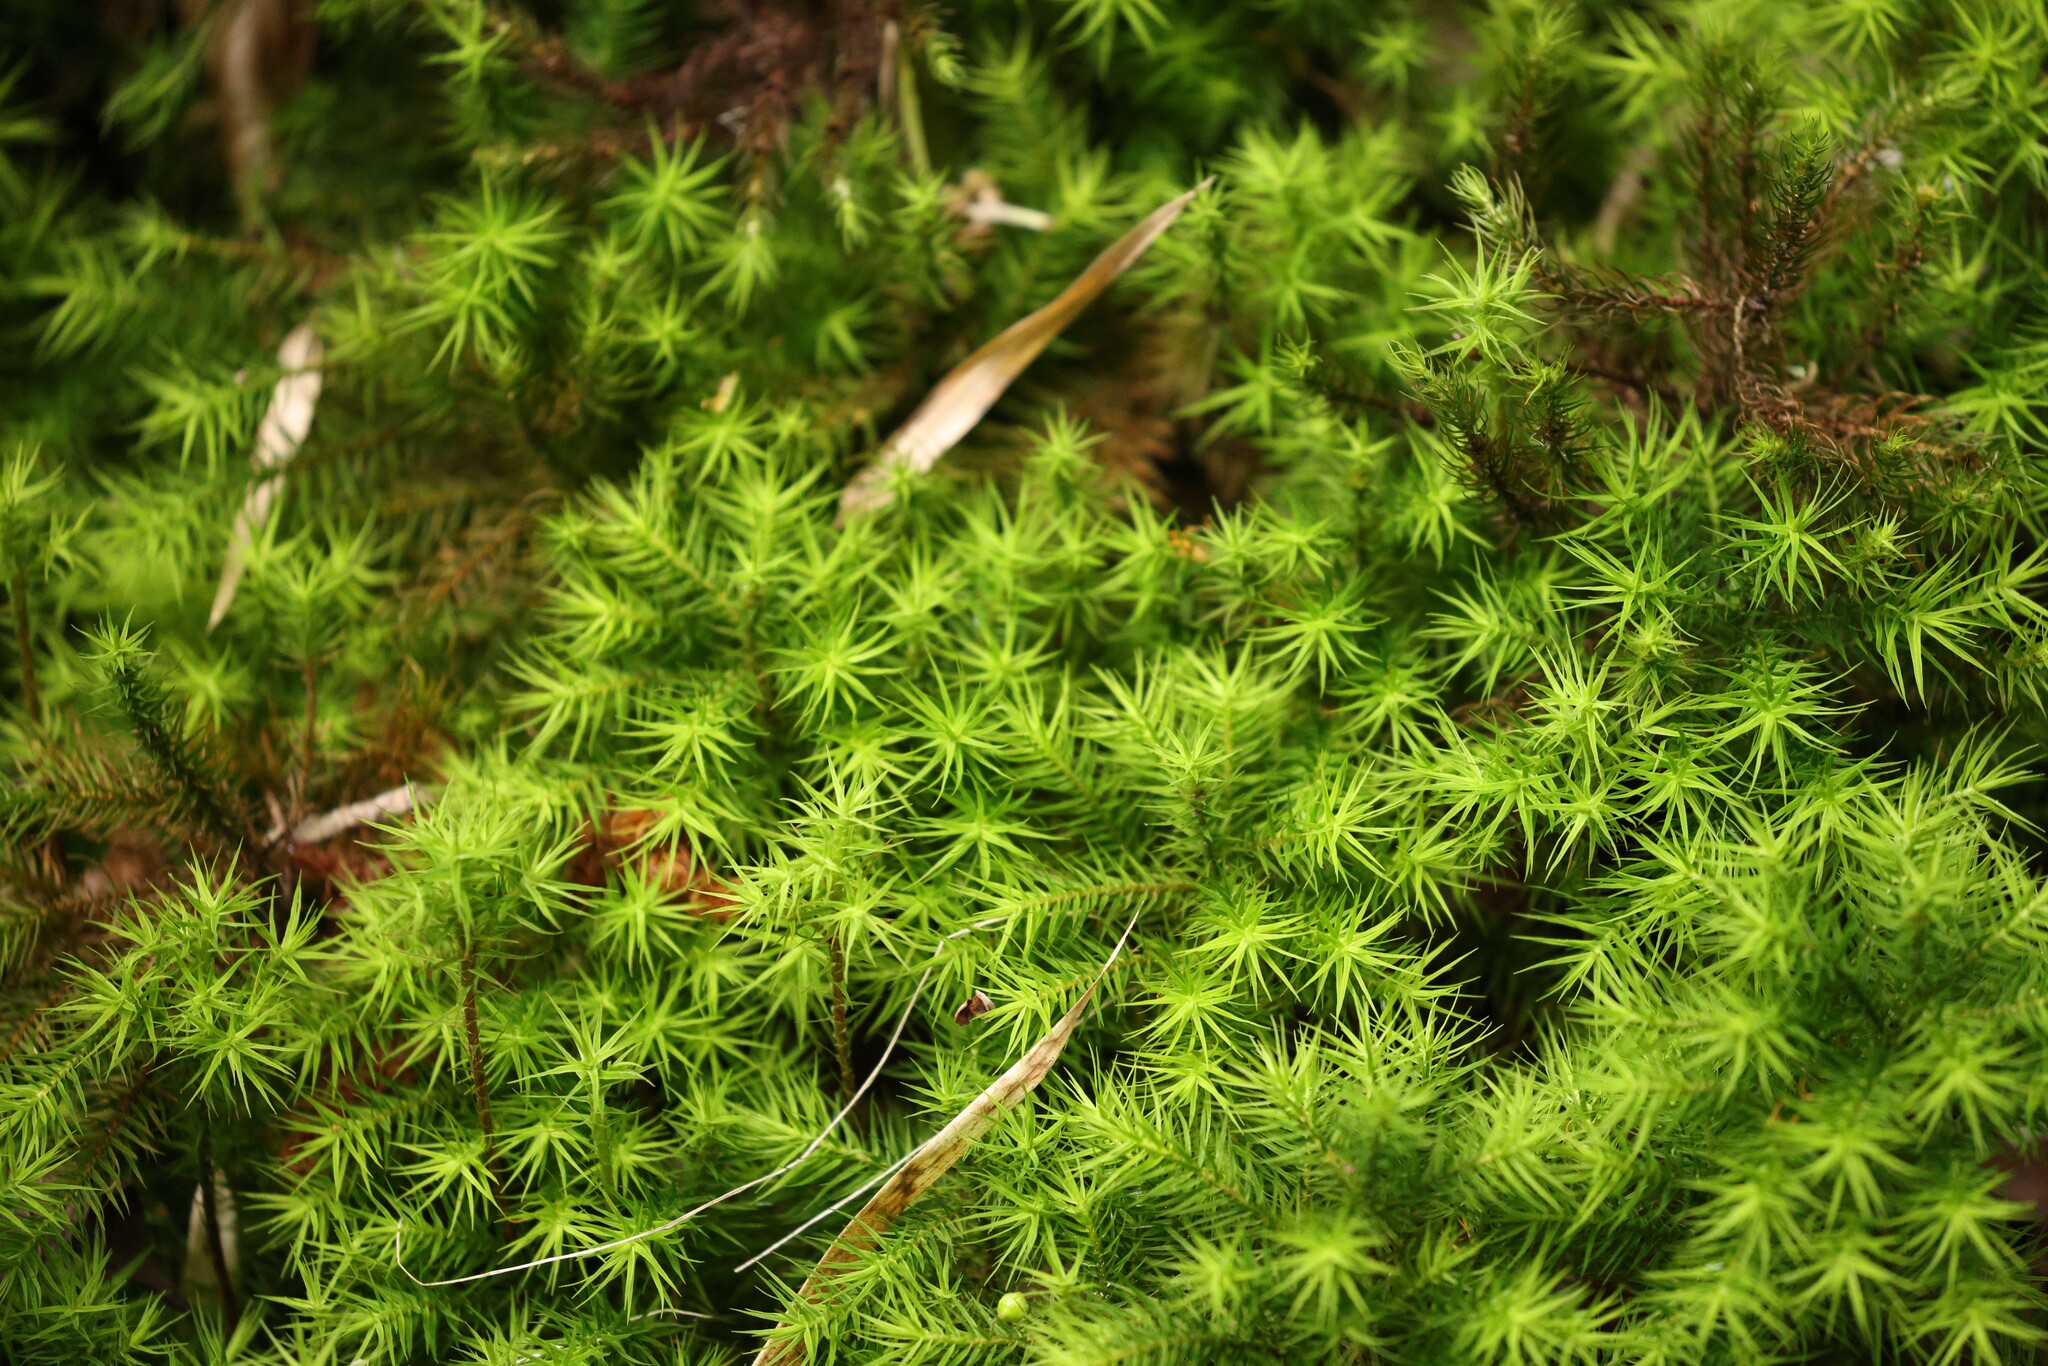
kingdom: Plantae
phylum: Bryophyta
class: Polytrichopsida
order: Polytrichales
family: Polytrichaceae
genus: Dendroligotrichum
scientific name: Dendroligotrichum dendroides
